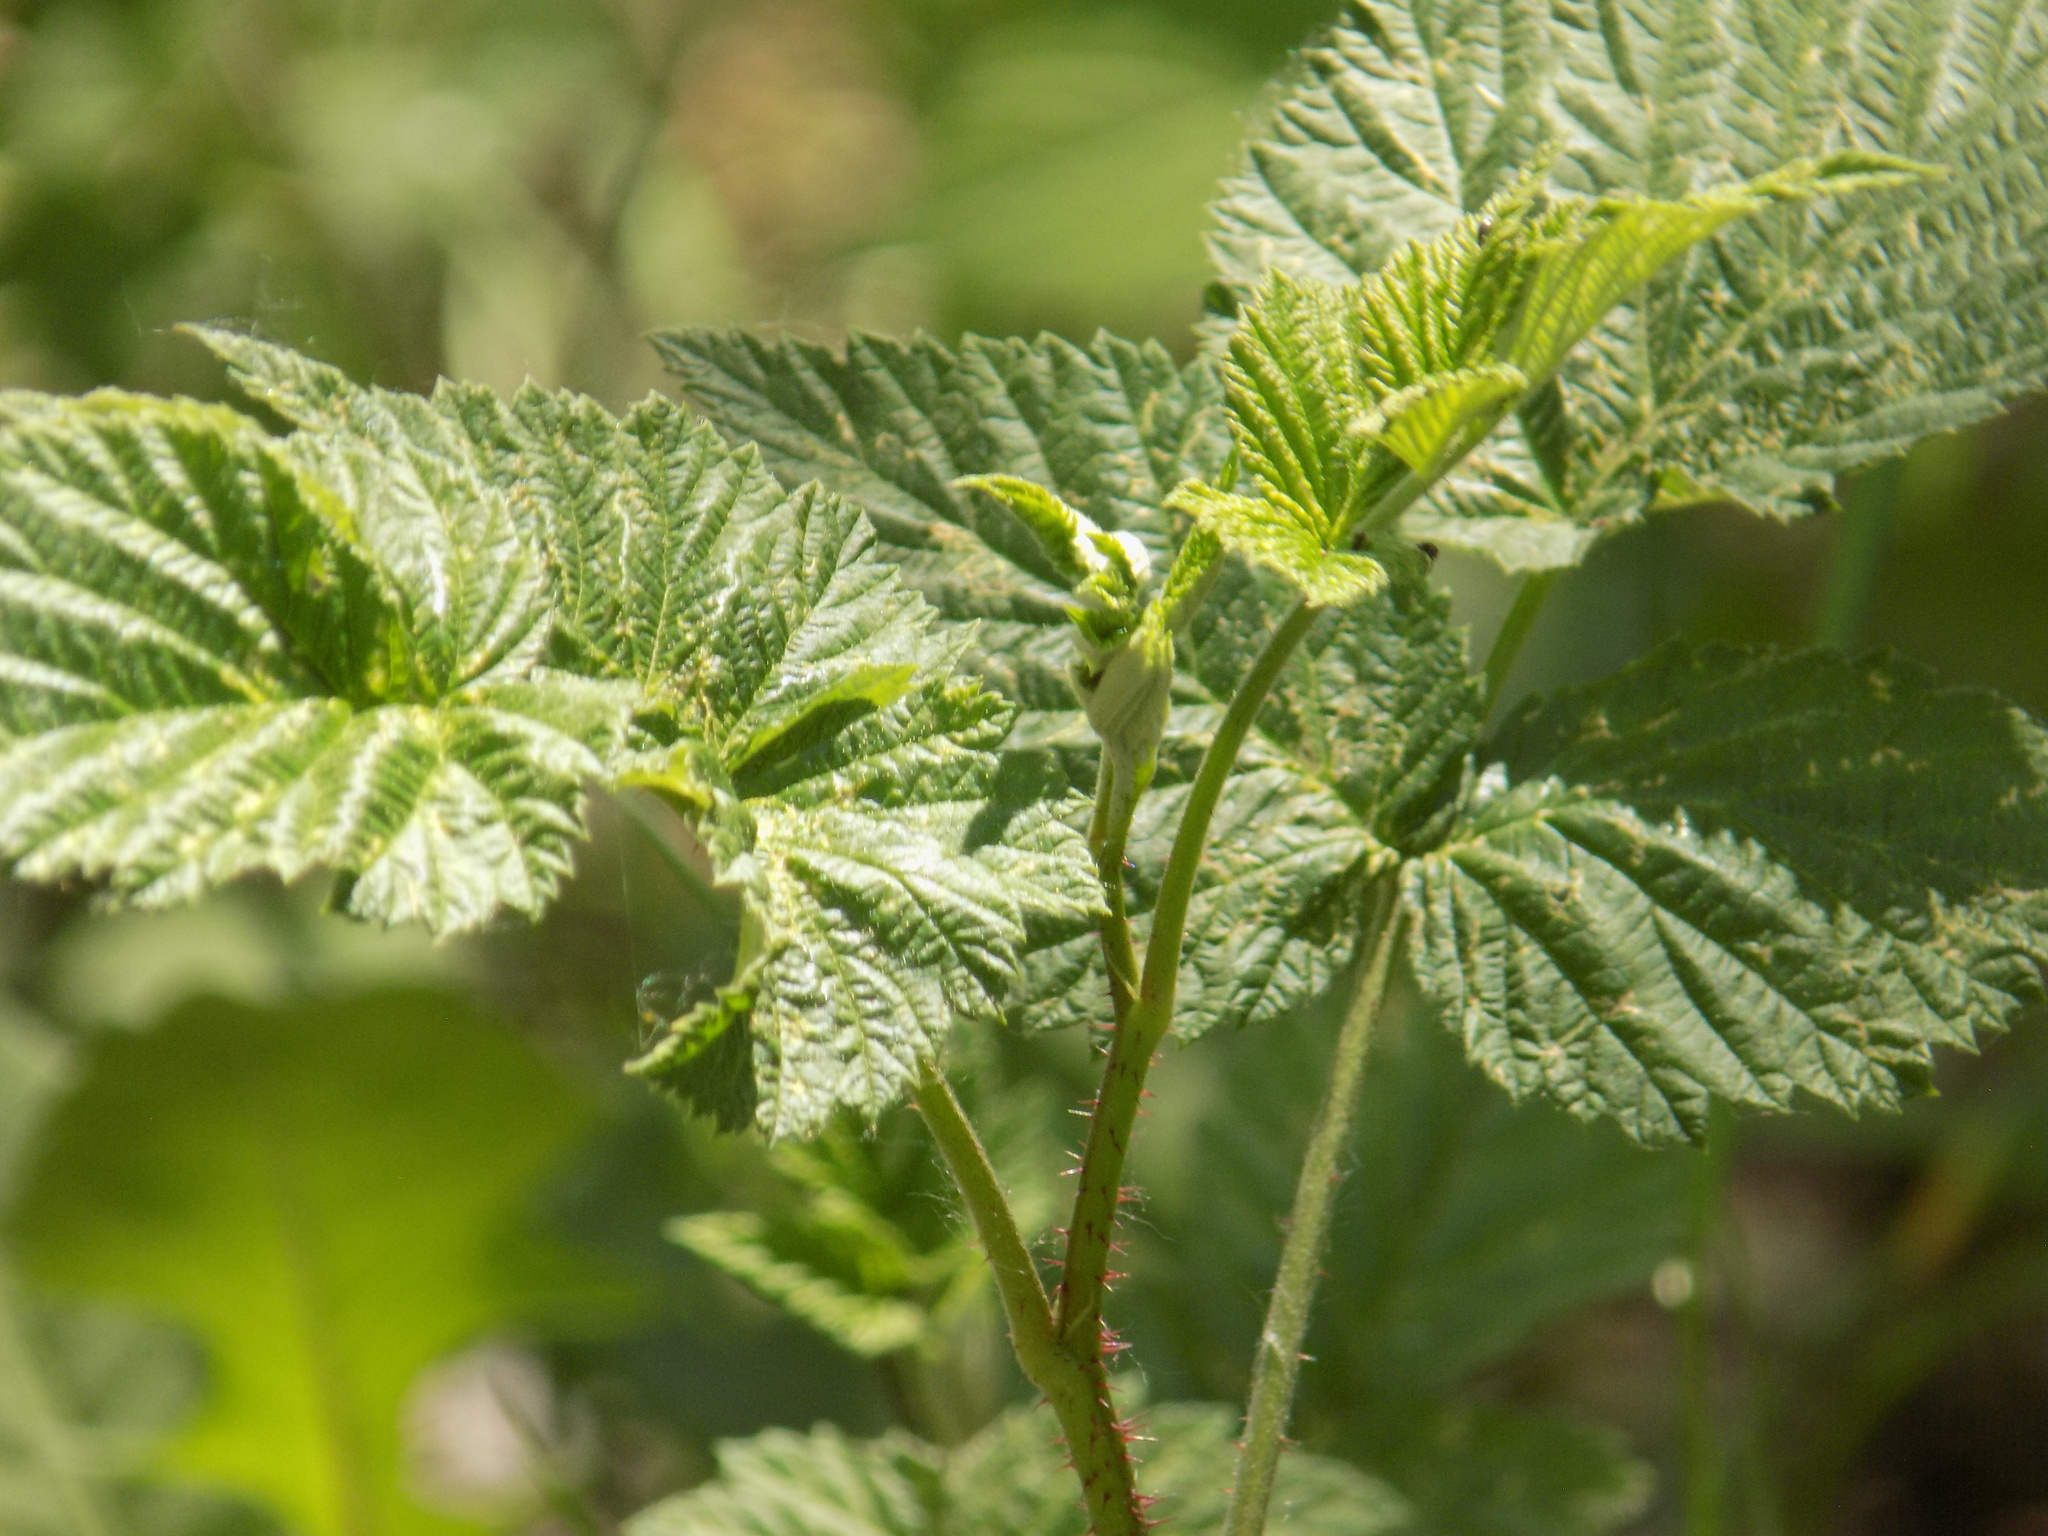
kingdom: Plantae
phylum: Tracheophyta
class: Magnoliopsida
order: Rosales
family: Rosaceae
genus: Rubus
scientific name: Rubus idaeus
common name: Raspberry
